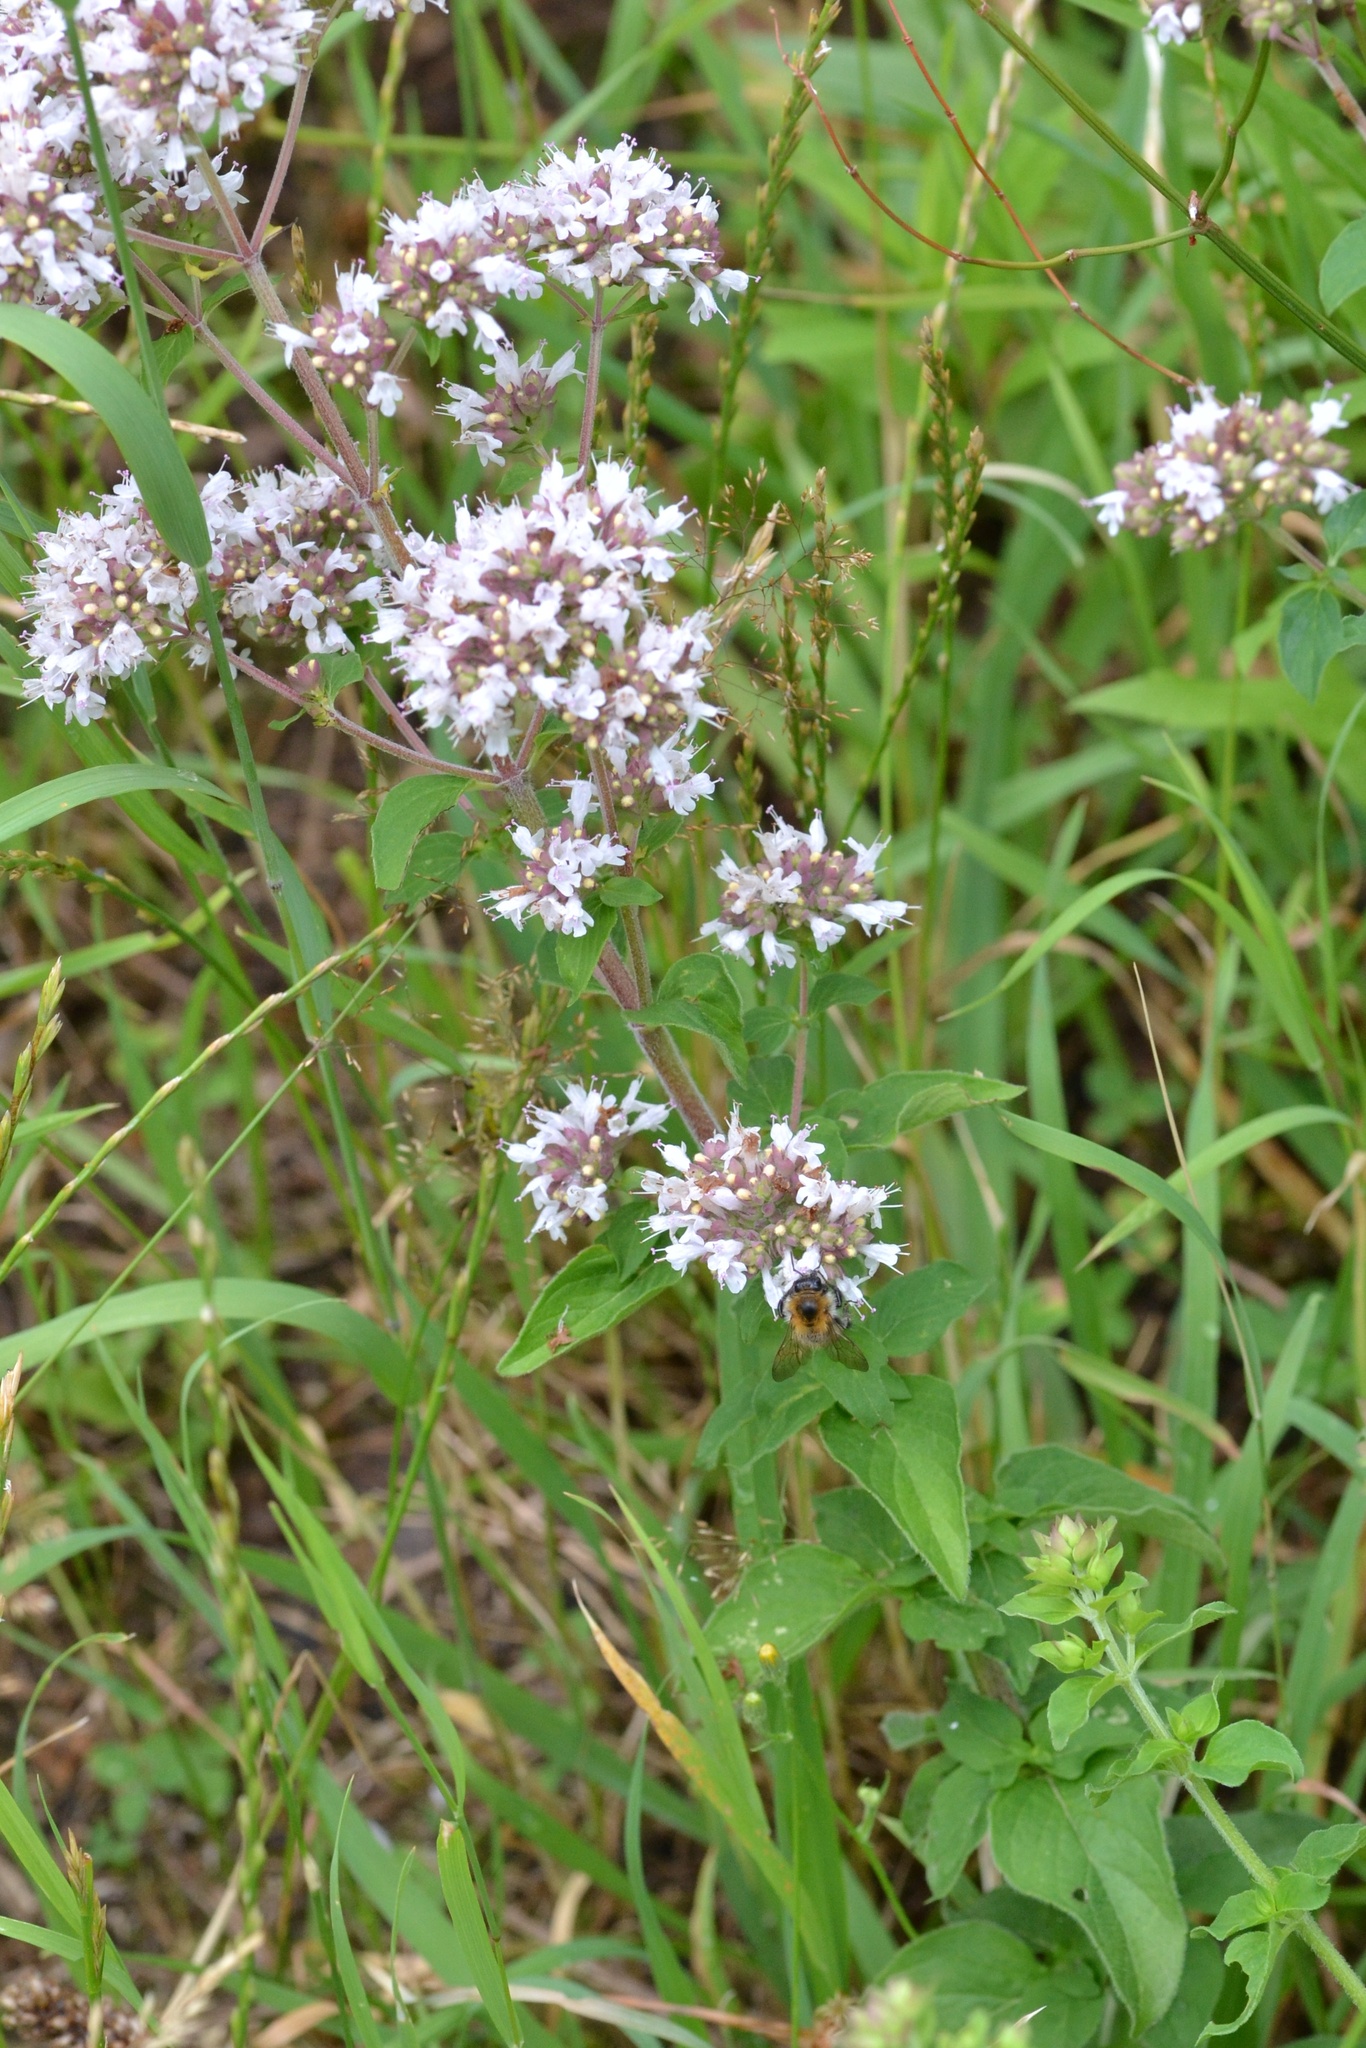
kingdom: Plantae
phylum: Tracheophyta
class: Magnoliopsida
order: Lamiales
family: Lamiaceae
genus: Origanum
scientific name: Origanum vulgare
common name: Wild marjoram
